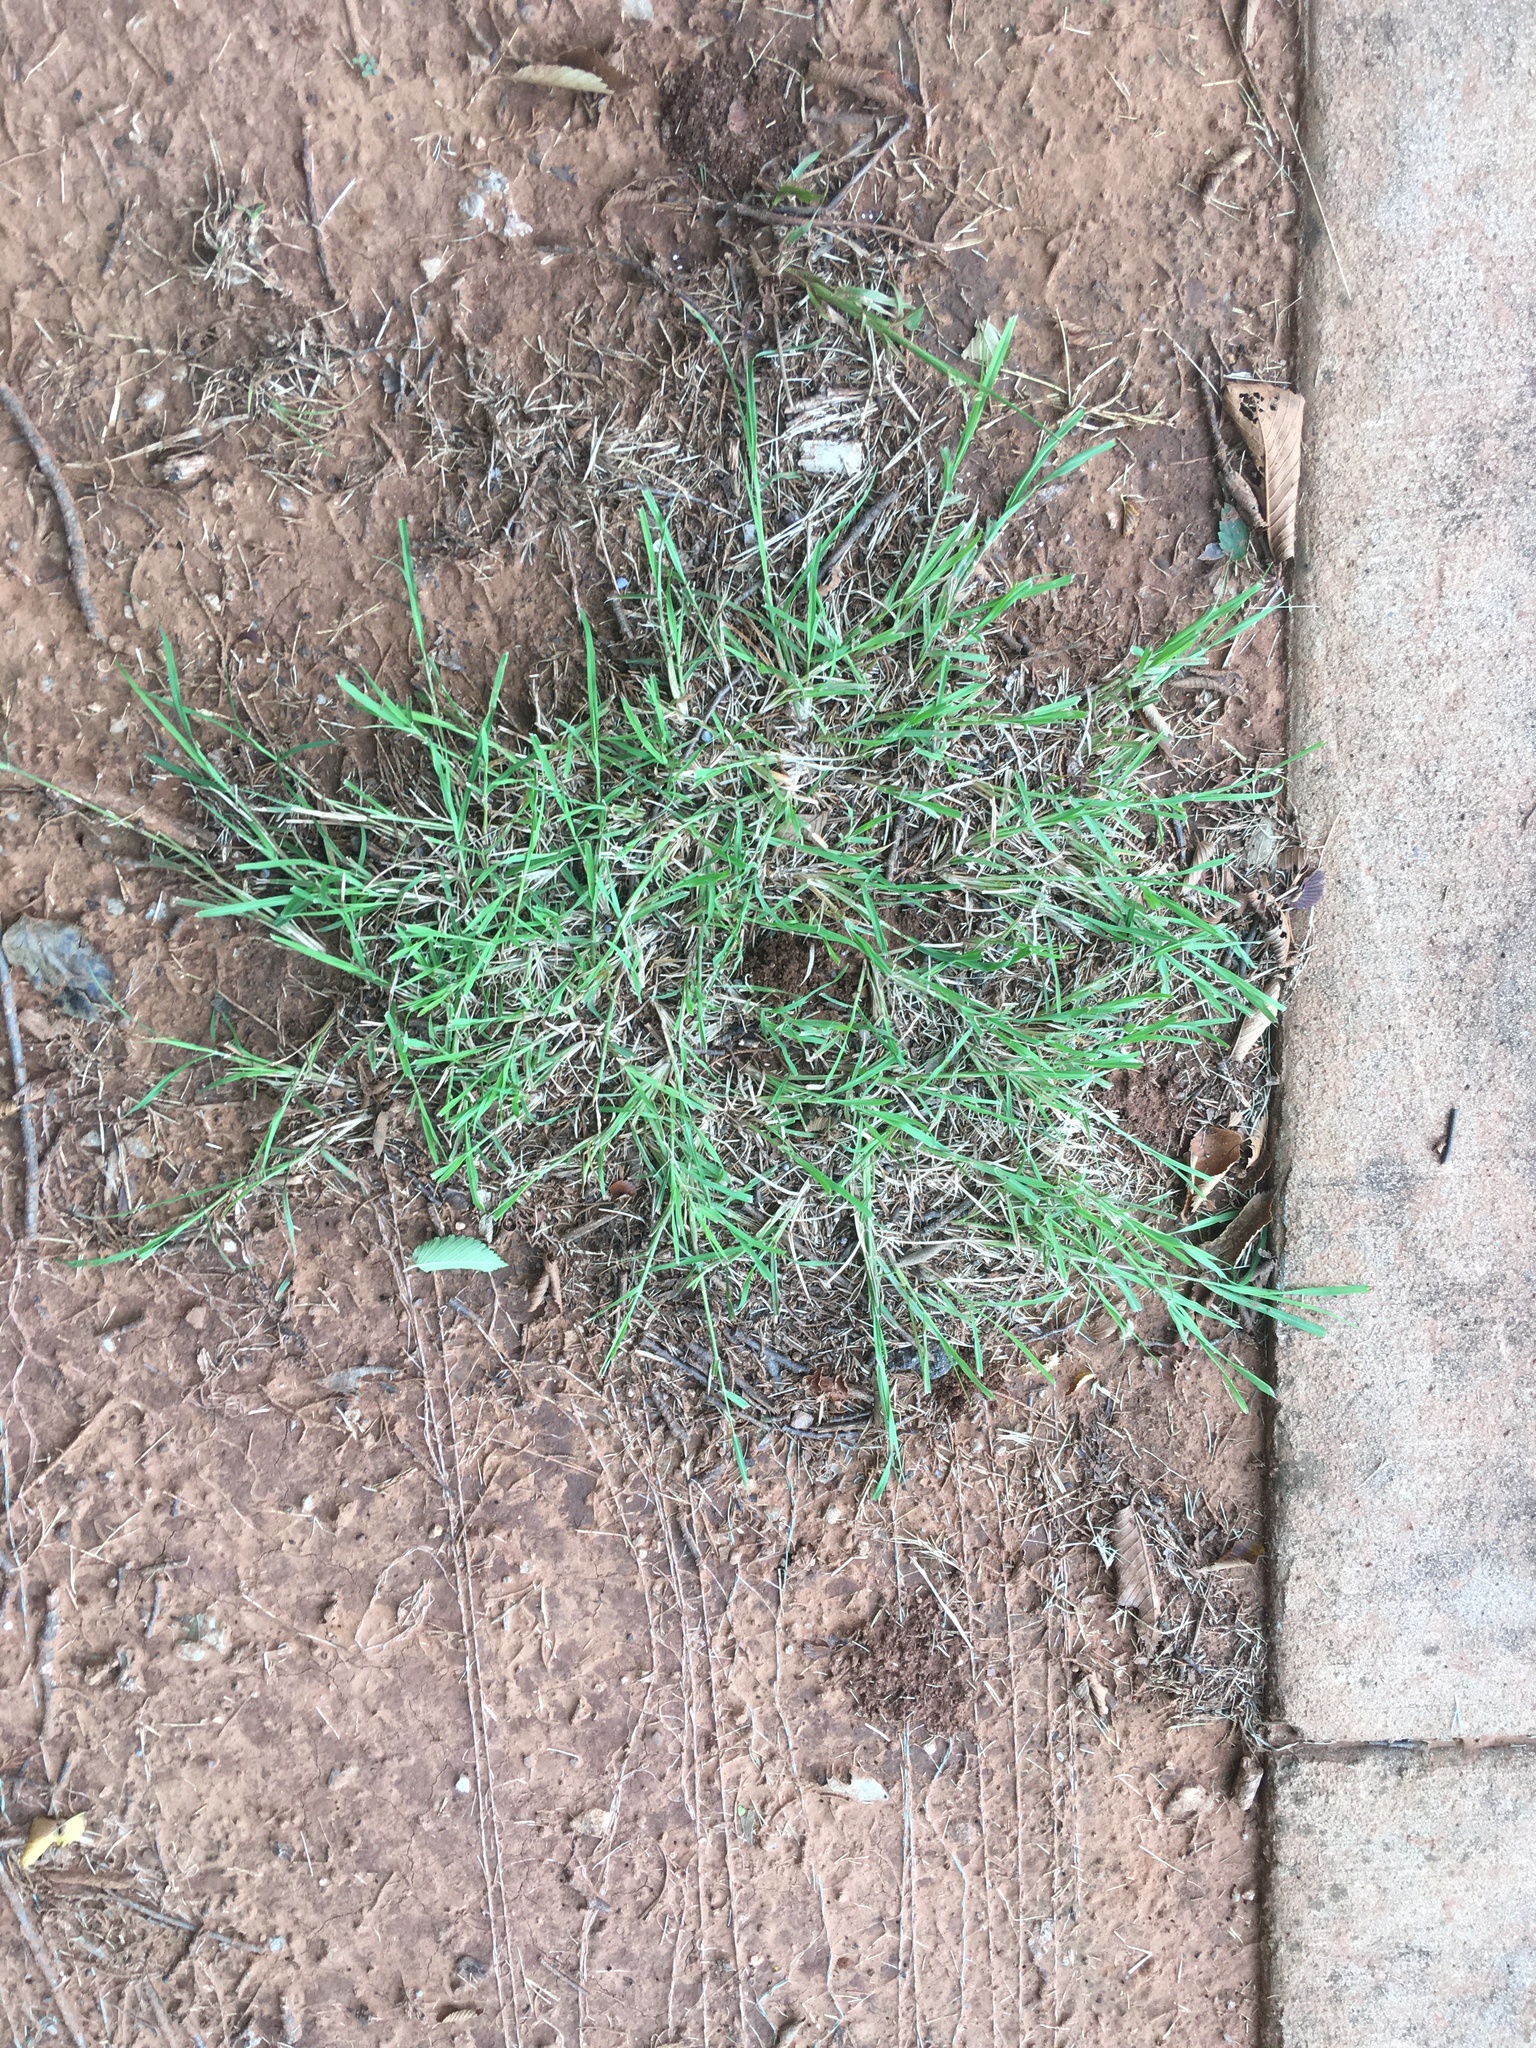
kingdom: Plantae
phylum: Tracheophyta
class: Liliopsida
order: Poales
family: Poaceae
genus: Cynodon
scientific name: Cynodon dactylon
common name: Bermuda grass
